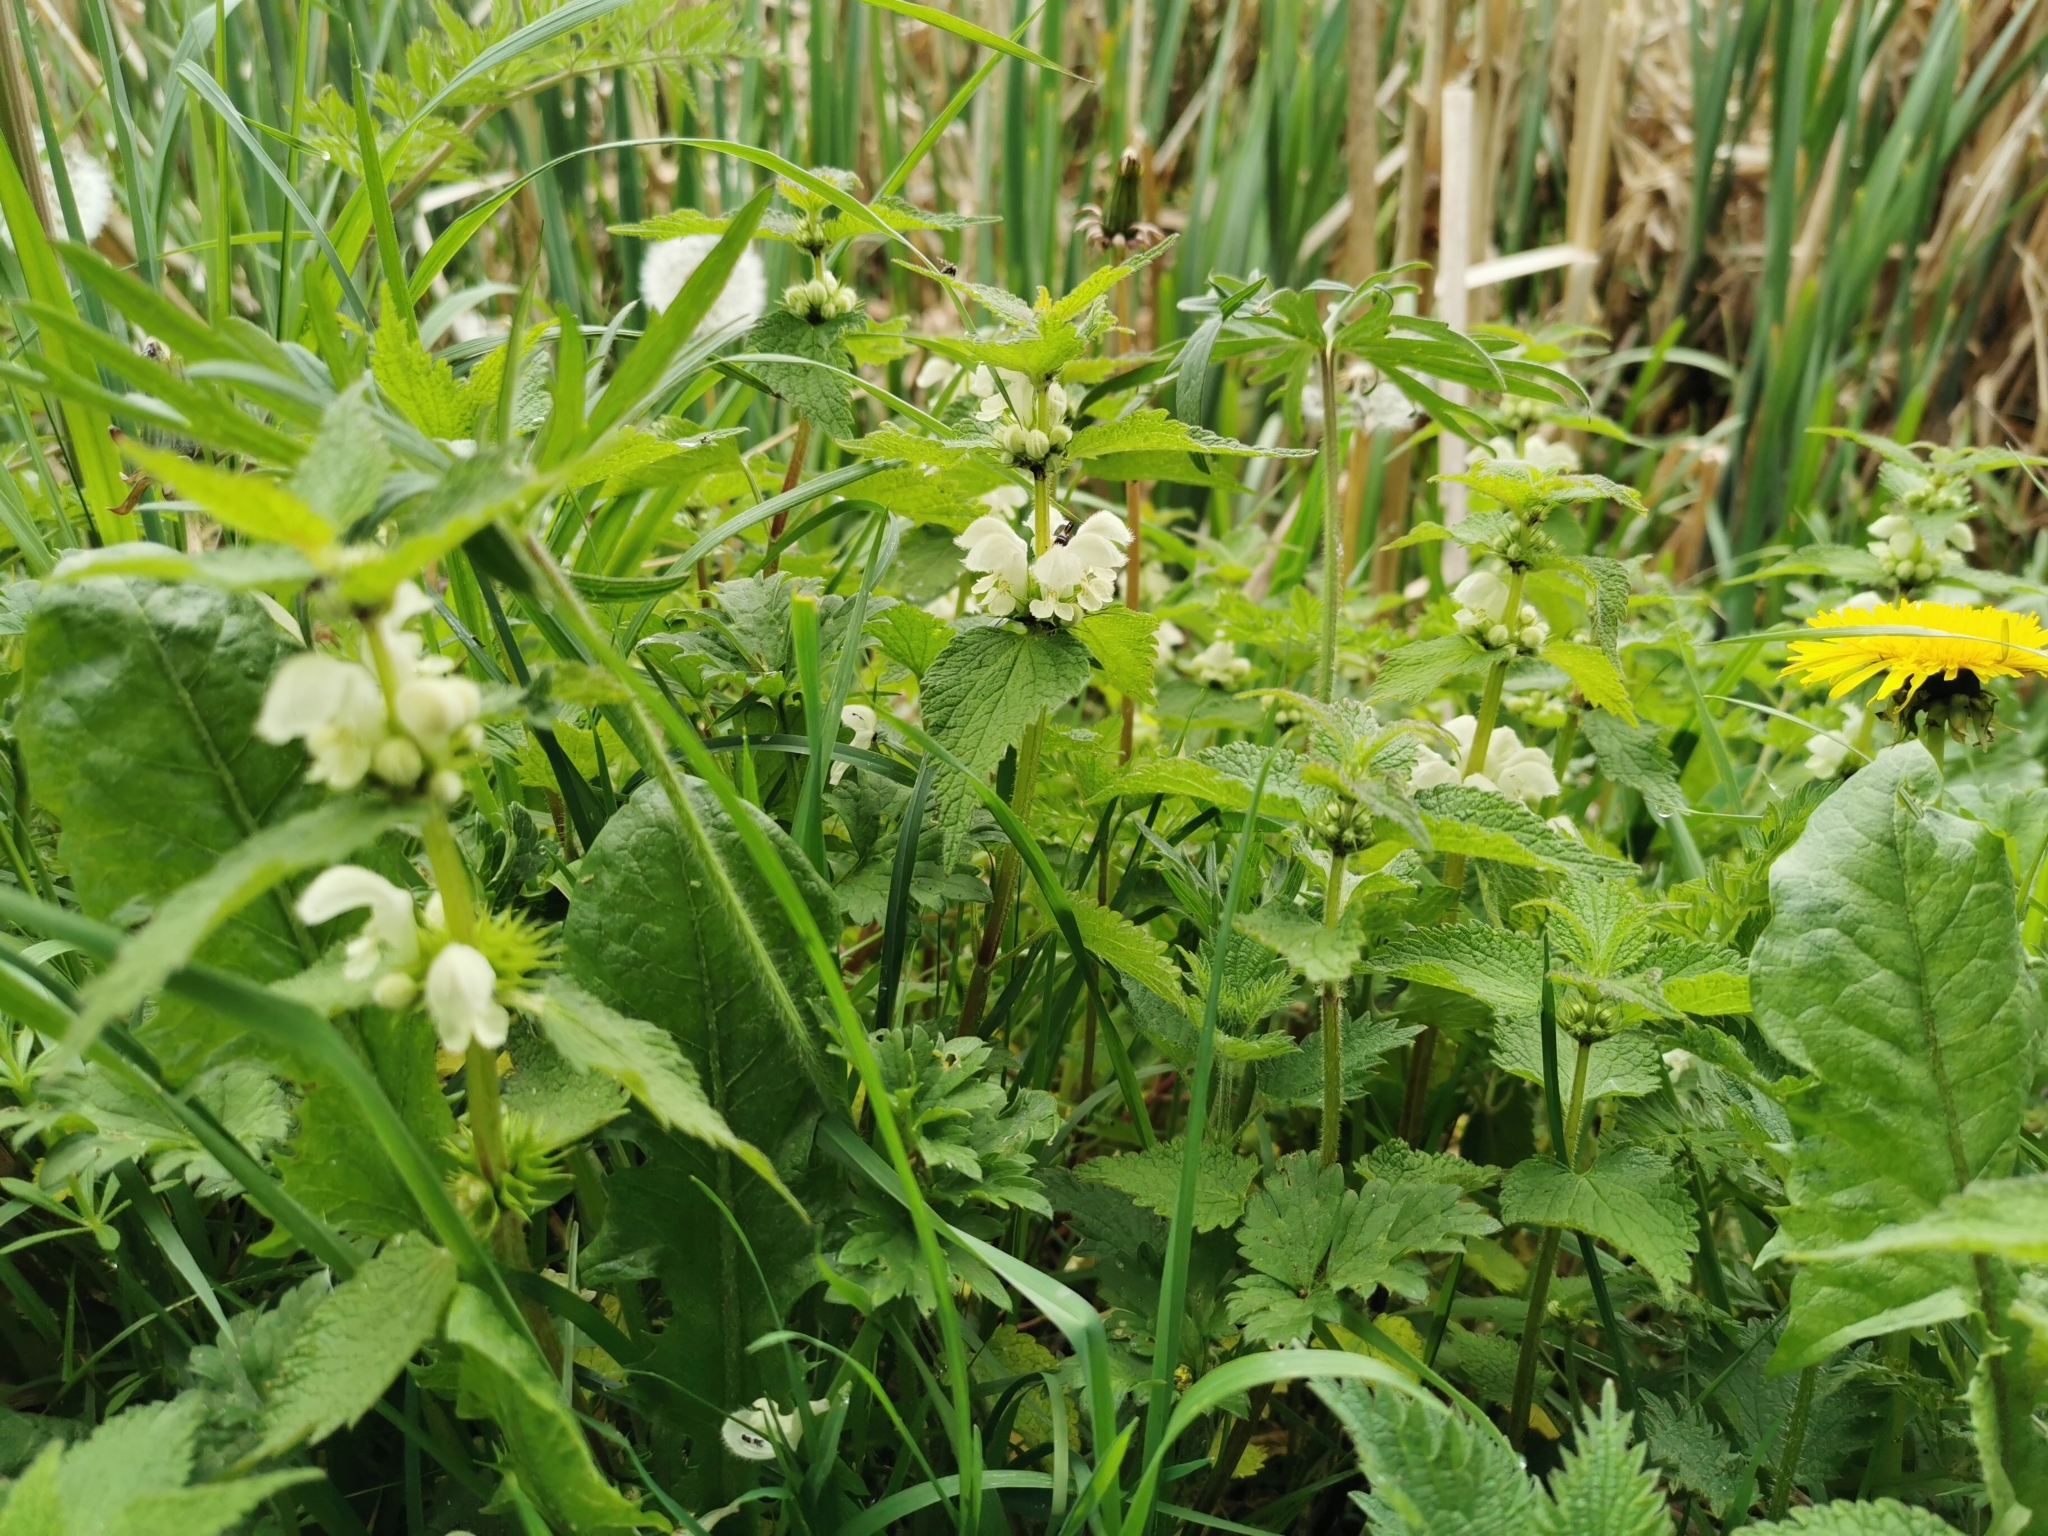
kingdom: Plantae
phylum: Tracheophyta
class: Magnoliopsida
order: Lamiales
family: Lamiaceae
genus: Lamium
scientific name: Lamium album
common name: White dead-nettle
